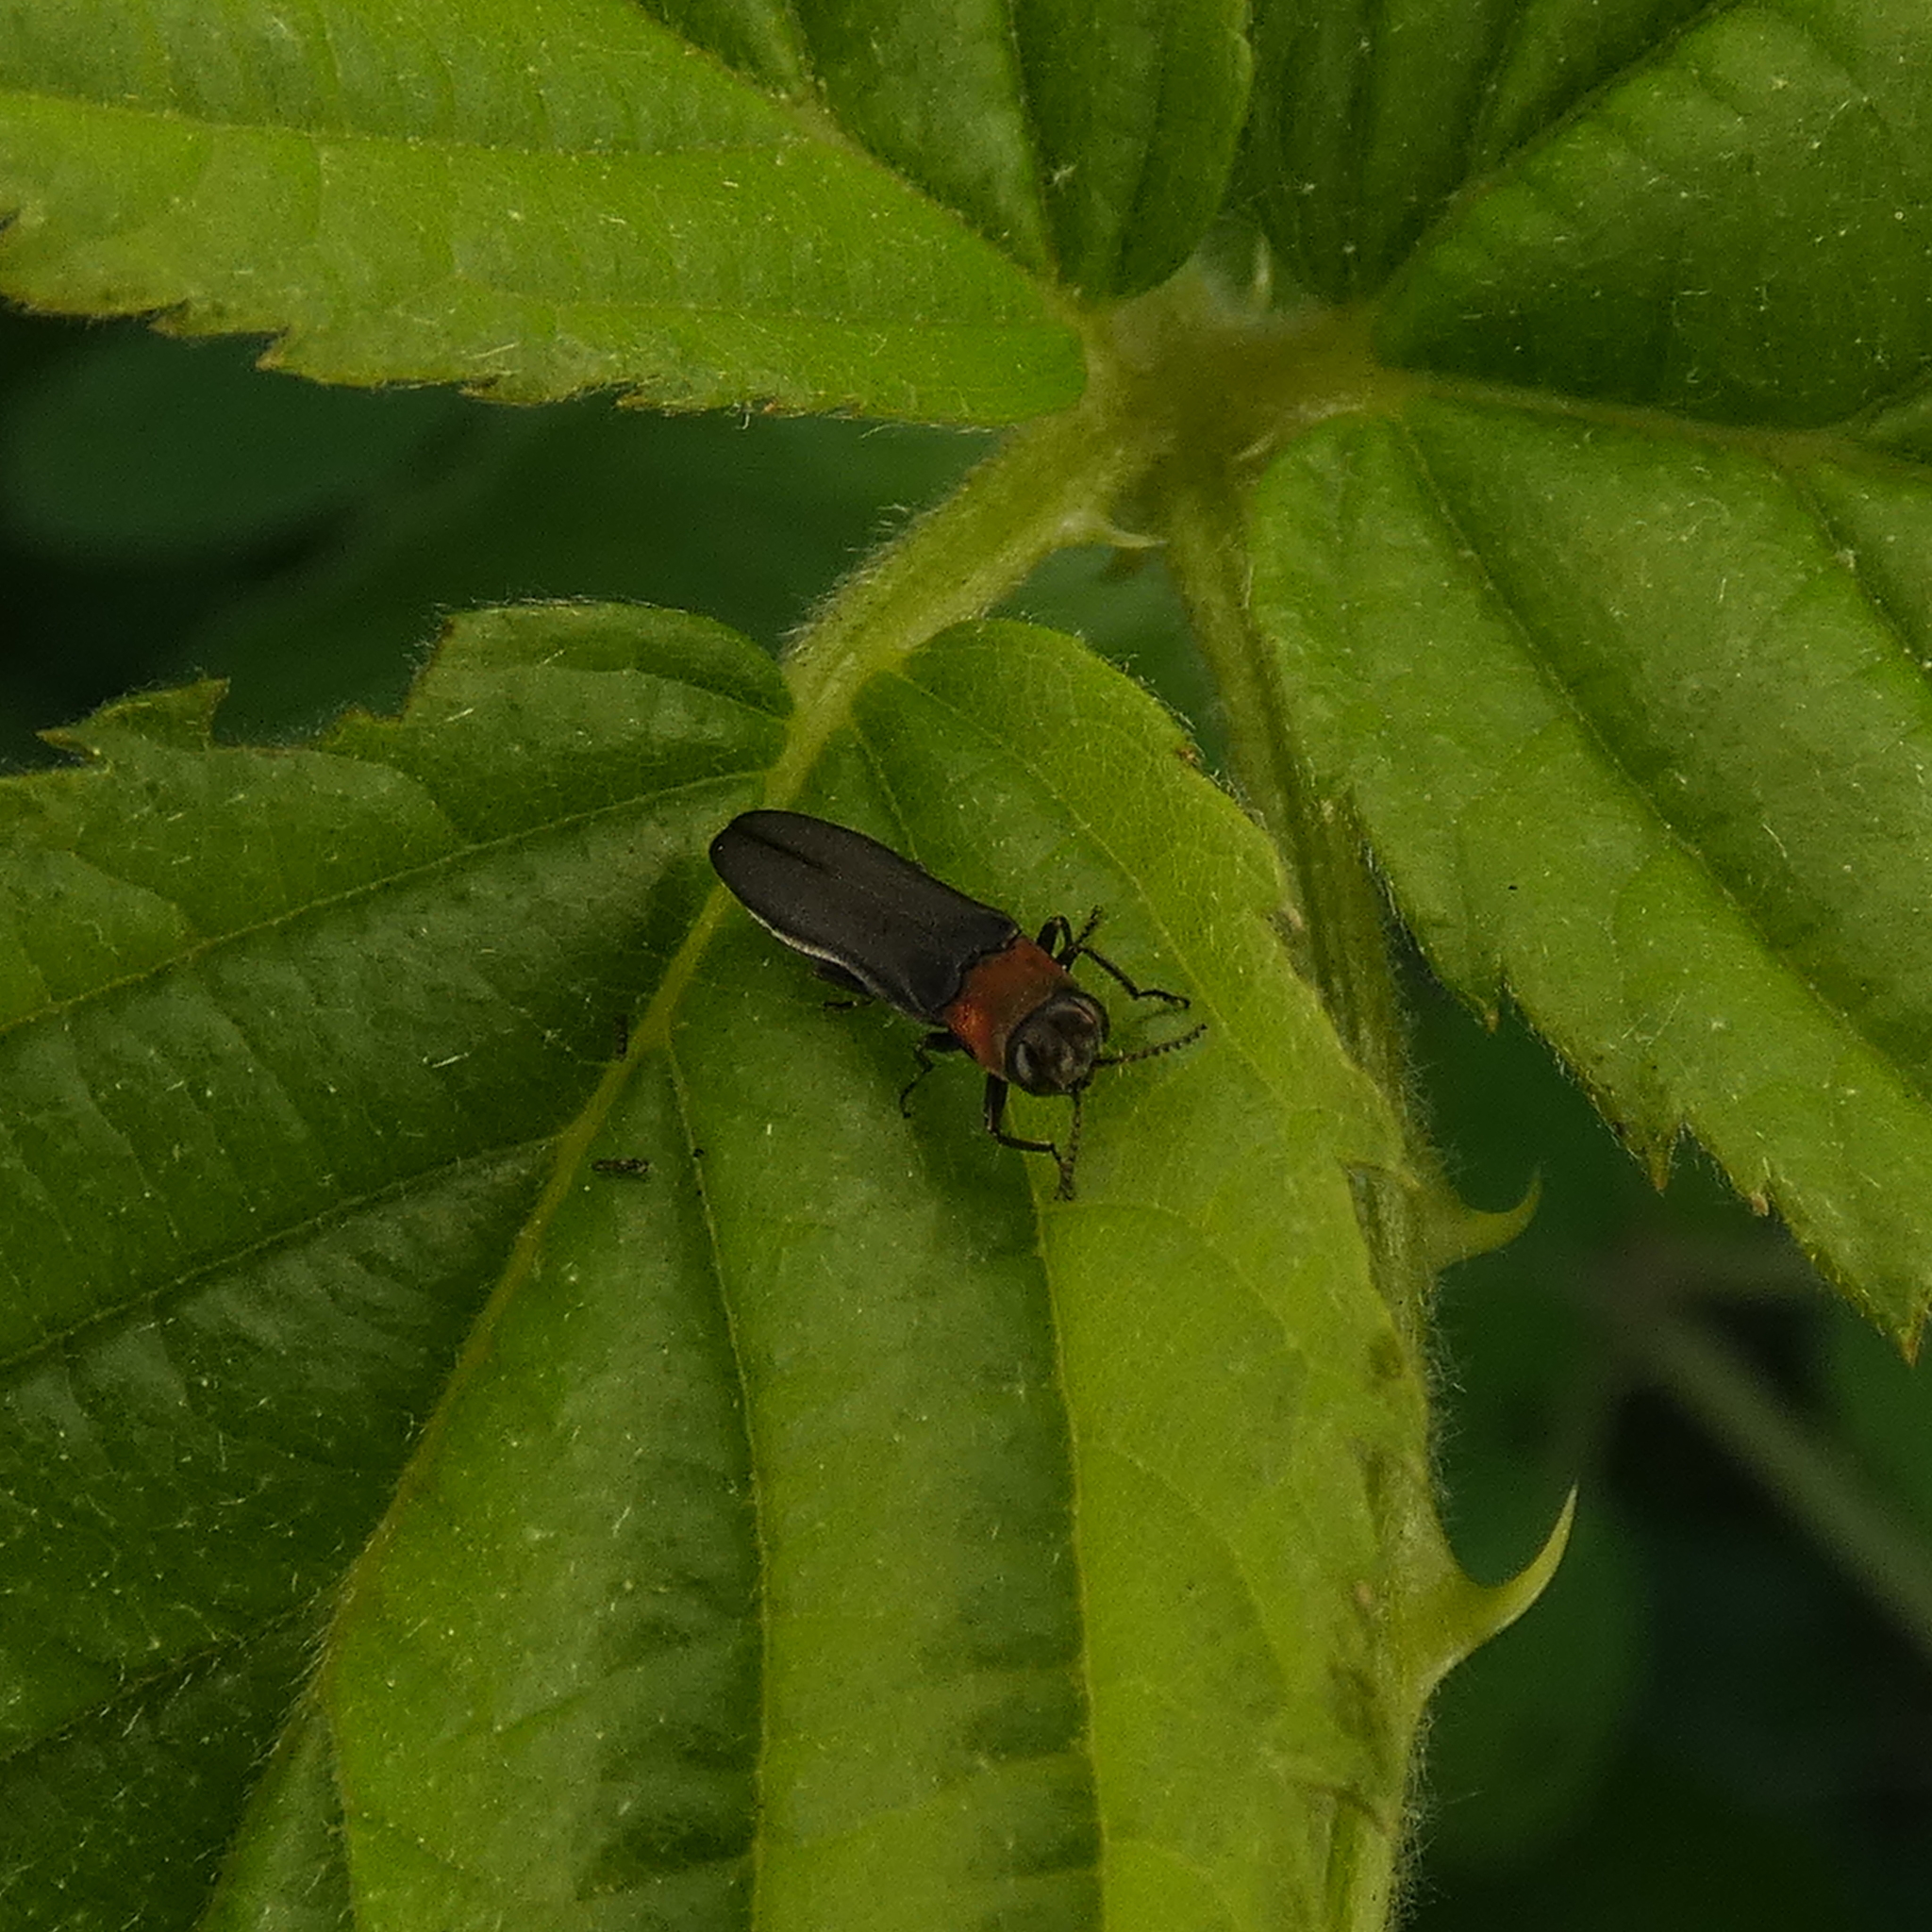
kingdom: Animalia
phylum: Arthropoda
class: Insecta
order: Coleoptera
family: Buprestidae
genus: Agrilus
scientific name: Agrilus ruficollis
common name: Red-necked cane borer beetle
